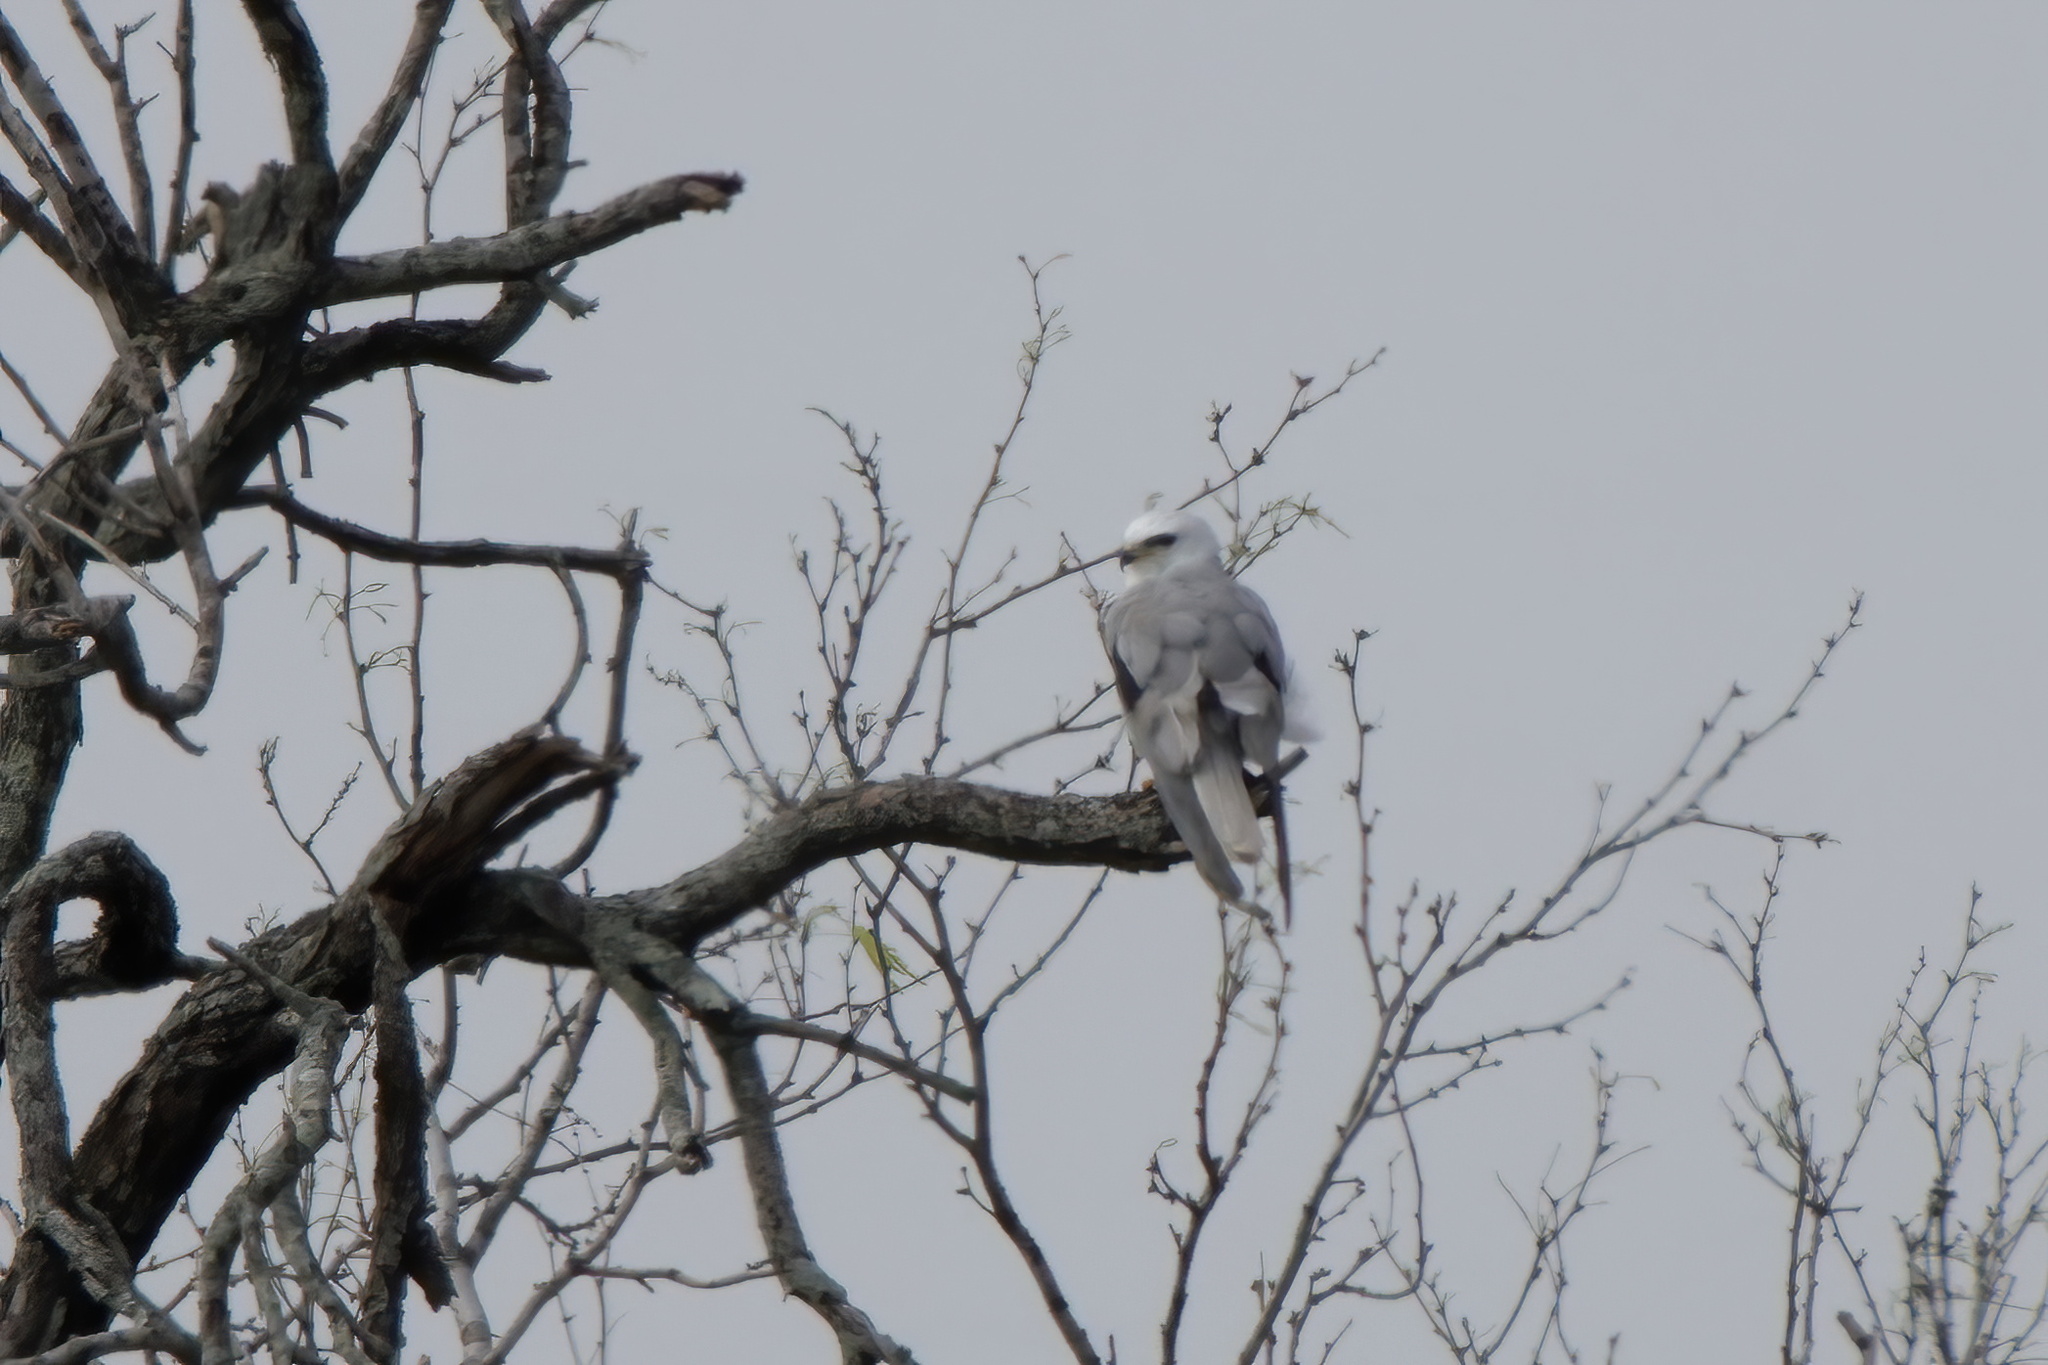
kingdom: Animalia
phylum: Chordata
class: Aves
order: Accipitriformes
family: Accipitridae
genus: Elanus
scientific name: Elanus leucurus
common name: White-tailed kite
